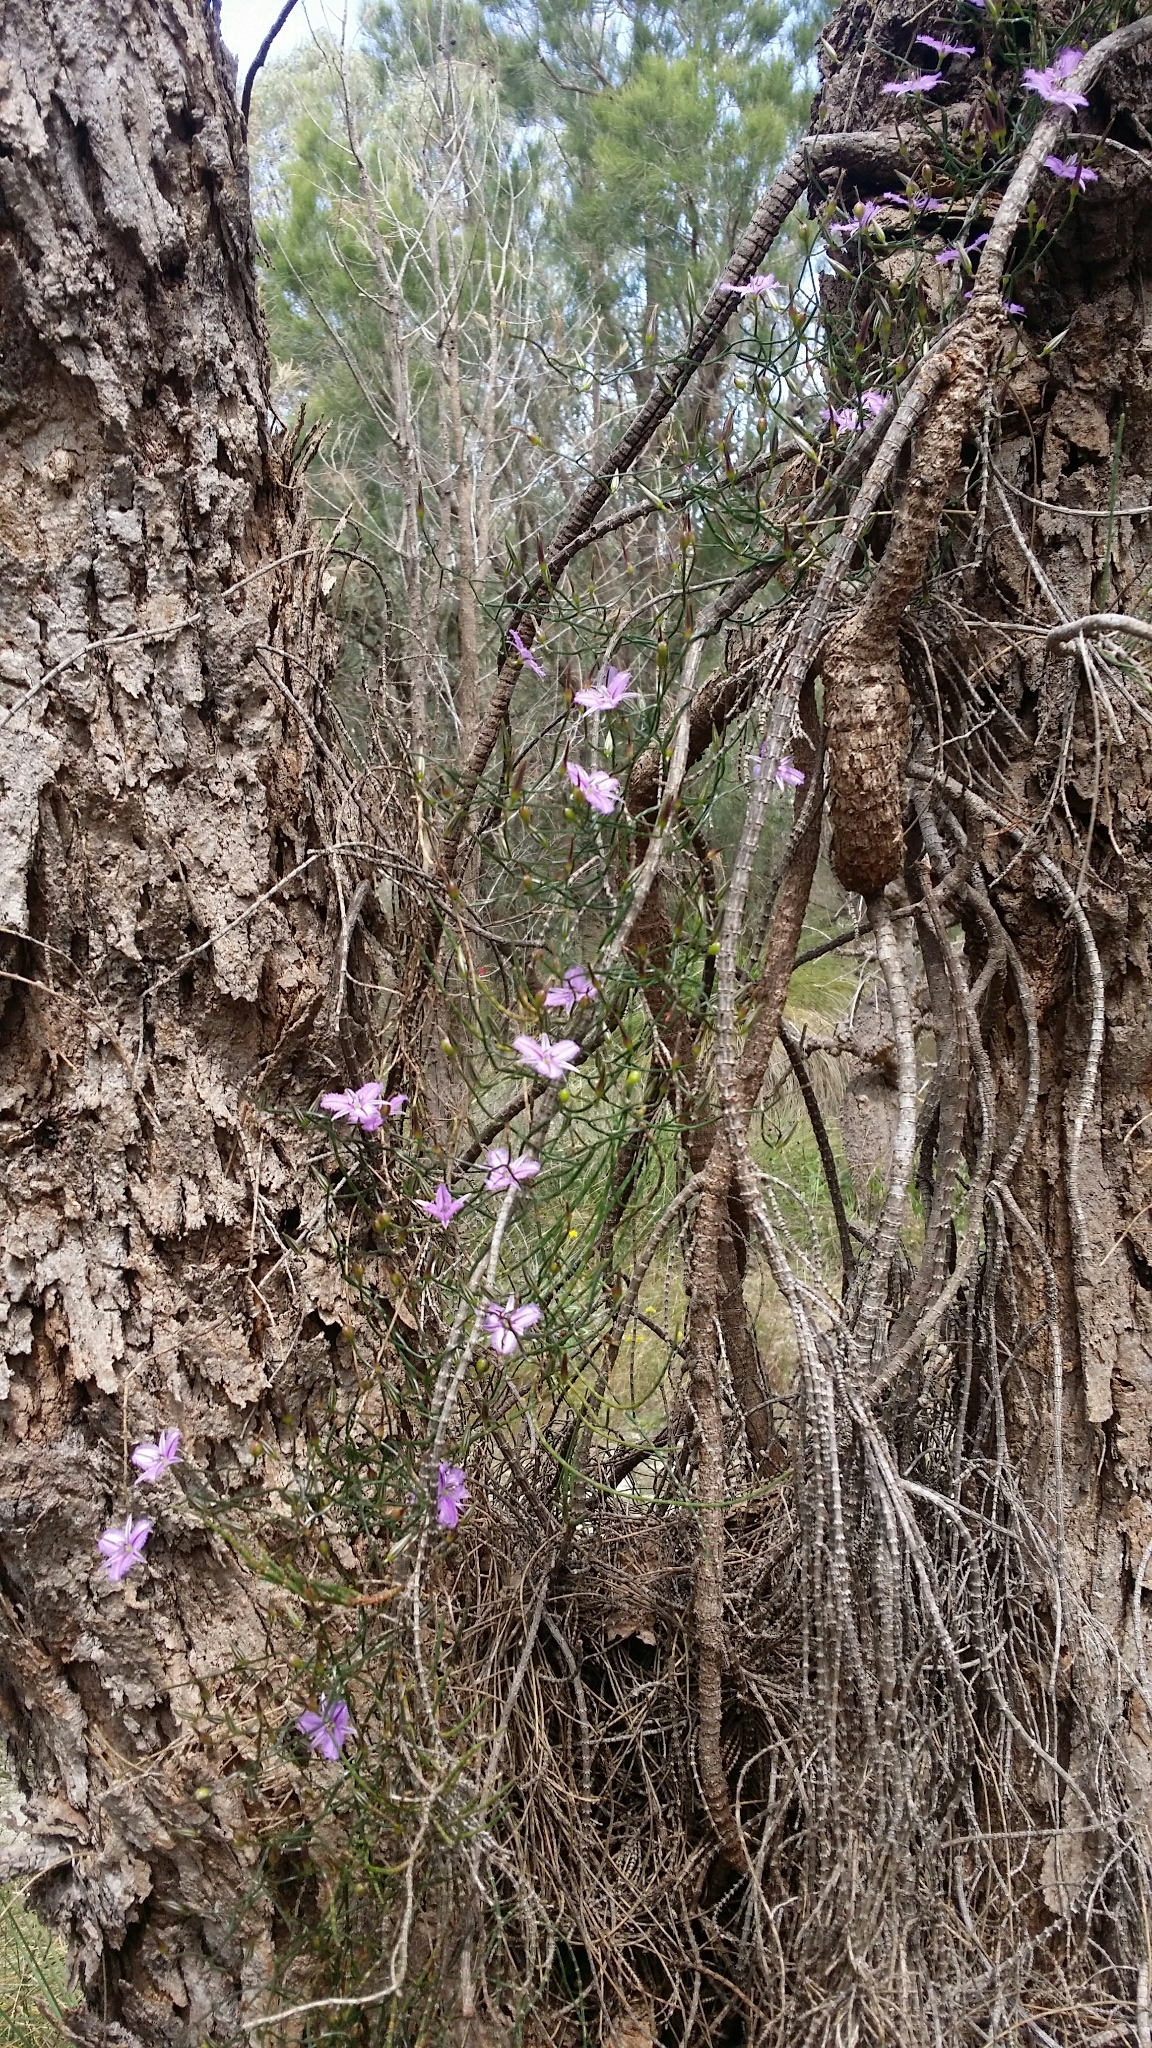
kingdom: Plantae
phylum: Tracheophyta
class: Liliopsida
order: Asparagales
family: Asparagaceae
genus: Thysanotus
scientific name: Thysanotus manglesianus
